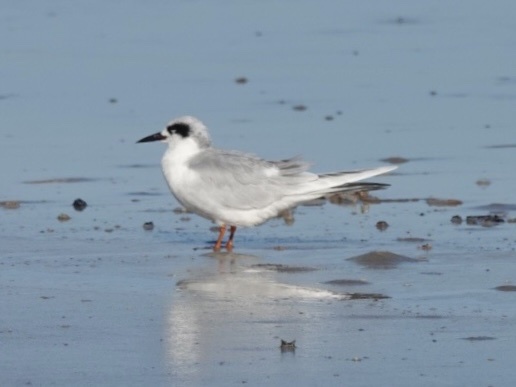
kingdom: Animalia
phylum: Chordata
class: Aves
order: Charadriiformes
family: Laridae
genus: Sterna
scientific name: Sterna forsteri
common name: Forster's tern
